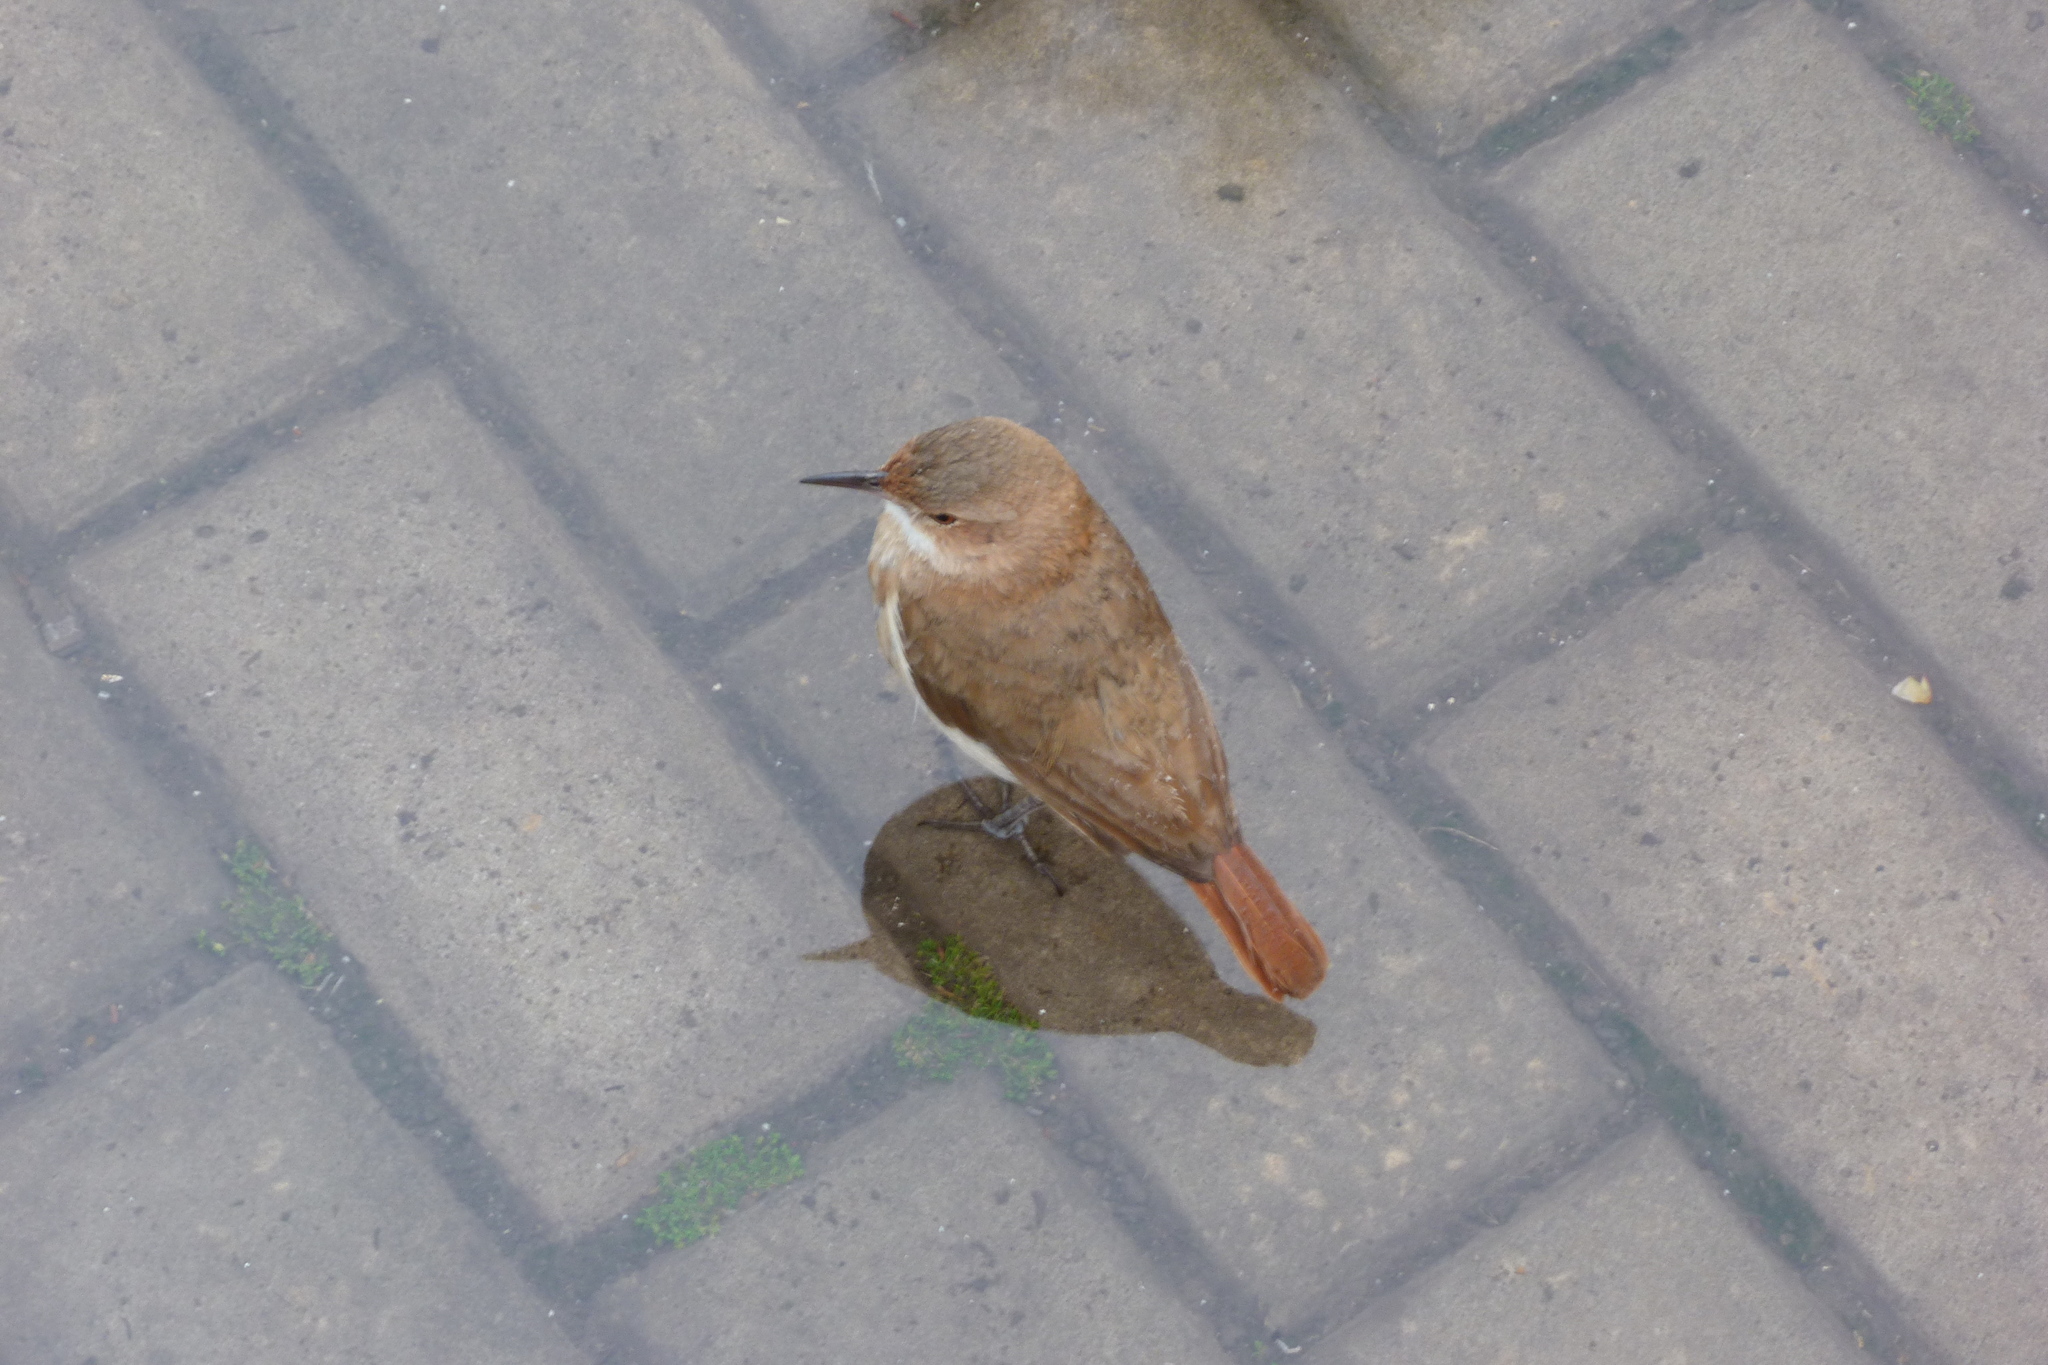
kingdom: Animalia
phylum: Chordata
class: Aves
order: Passeriformes
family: Furnariidae
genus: Furnarius
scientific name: Furnarius rufus
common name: Rufous hornero
